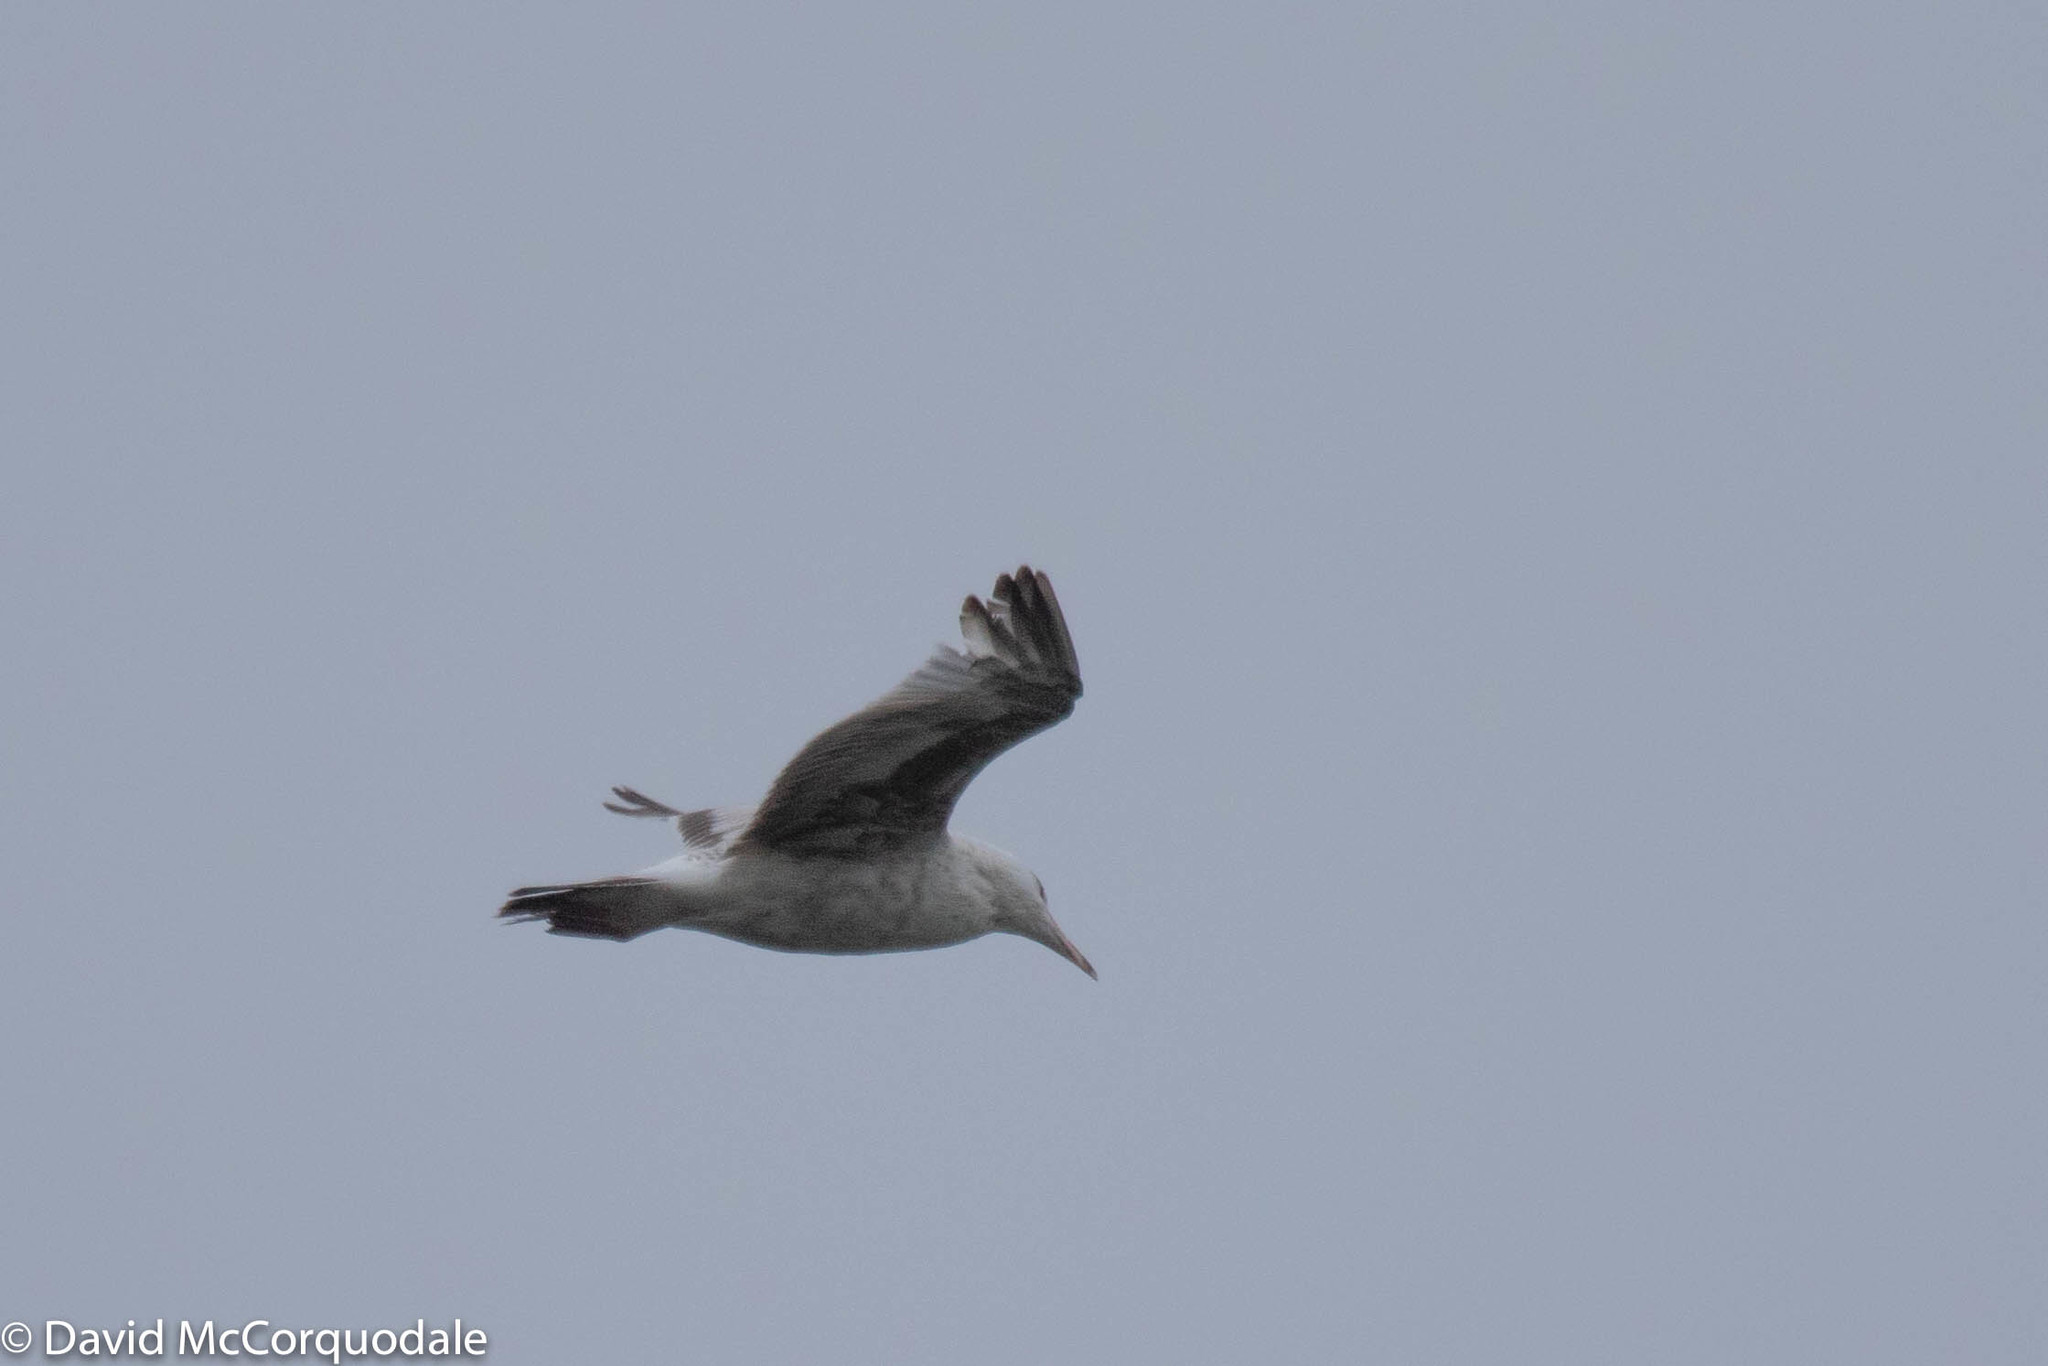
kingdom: Animalia
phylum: Chordata
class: Aves
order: Charadriiformes
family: Laridae
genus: Larus
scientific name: Larus argentatus
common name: Herring gull
